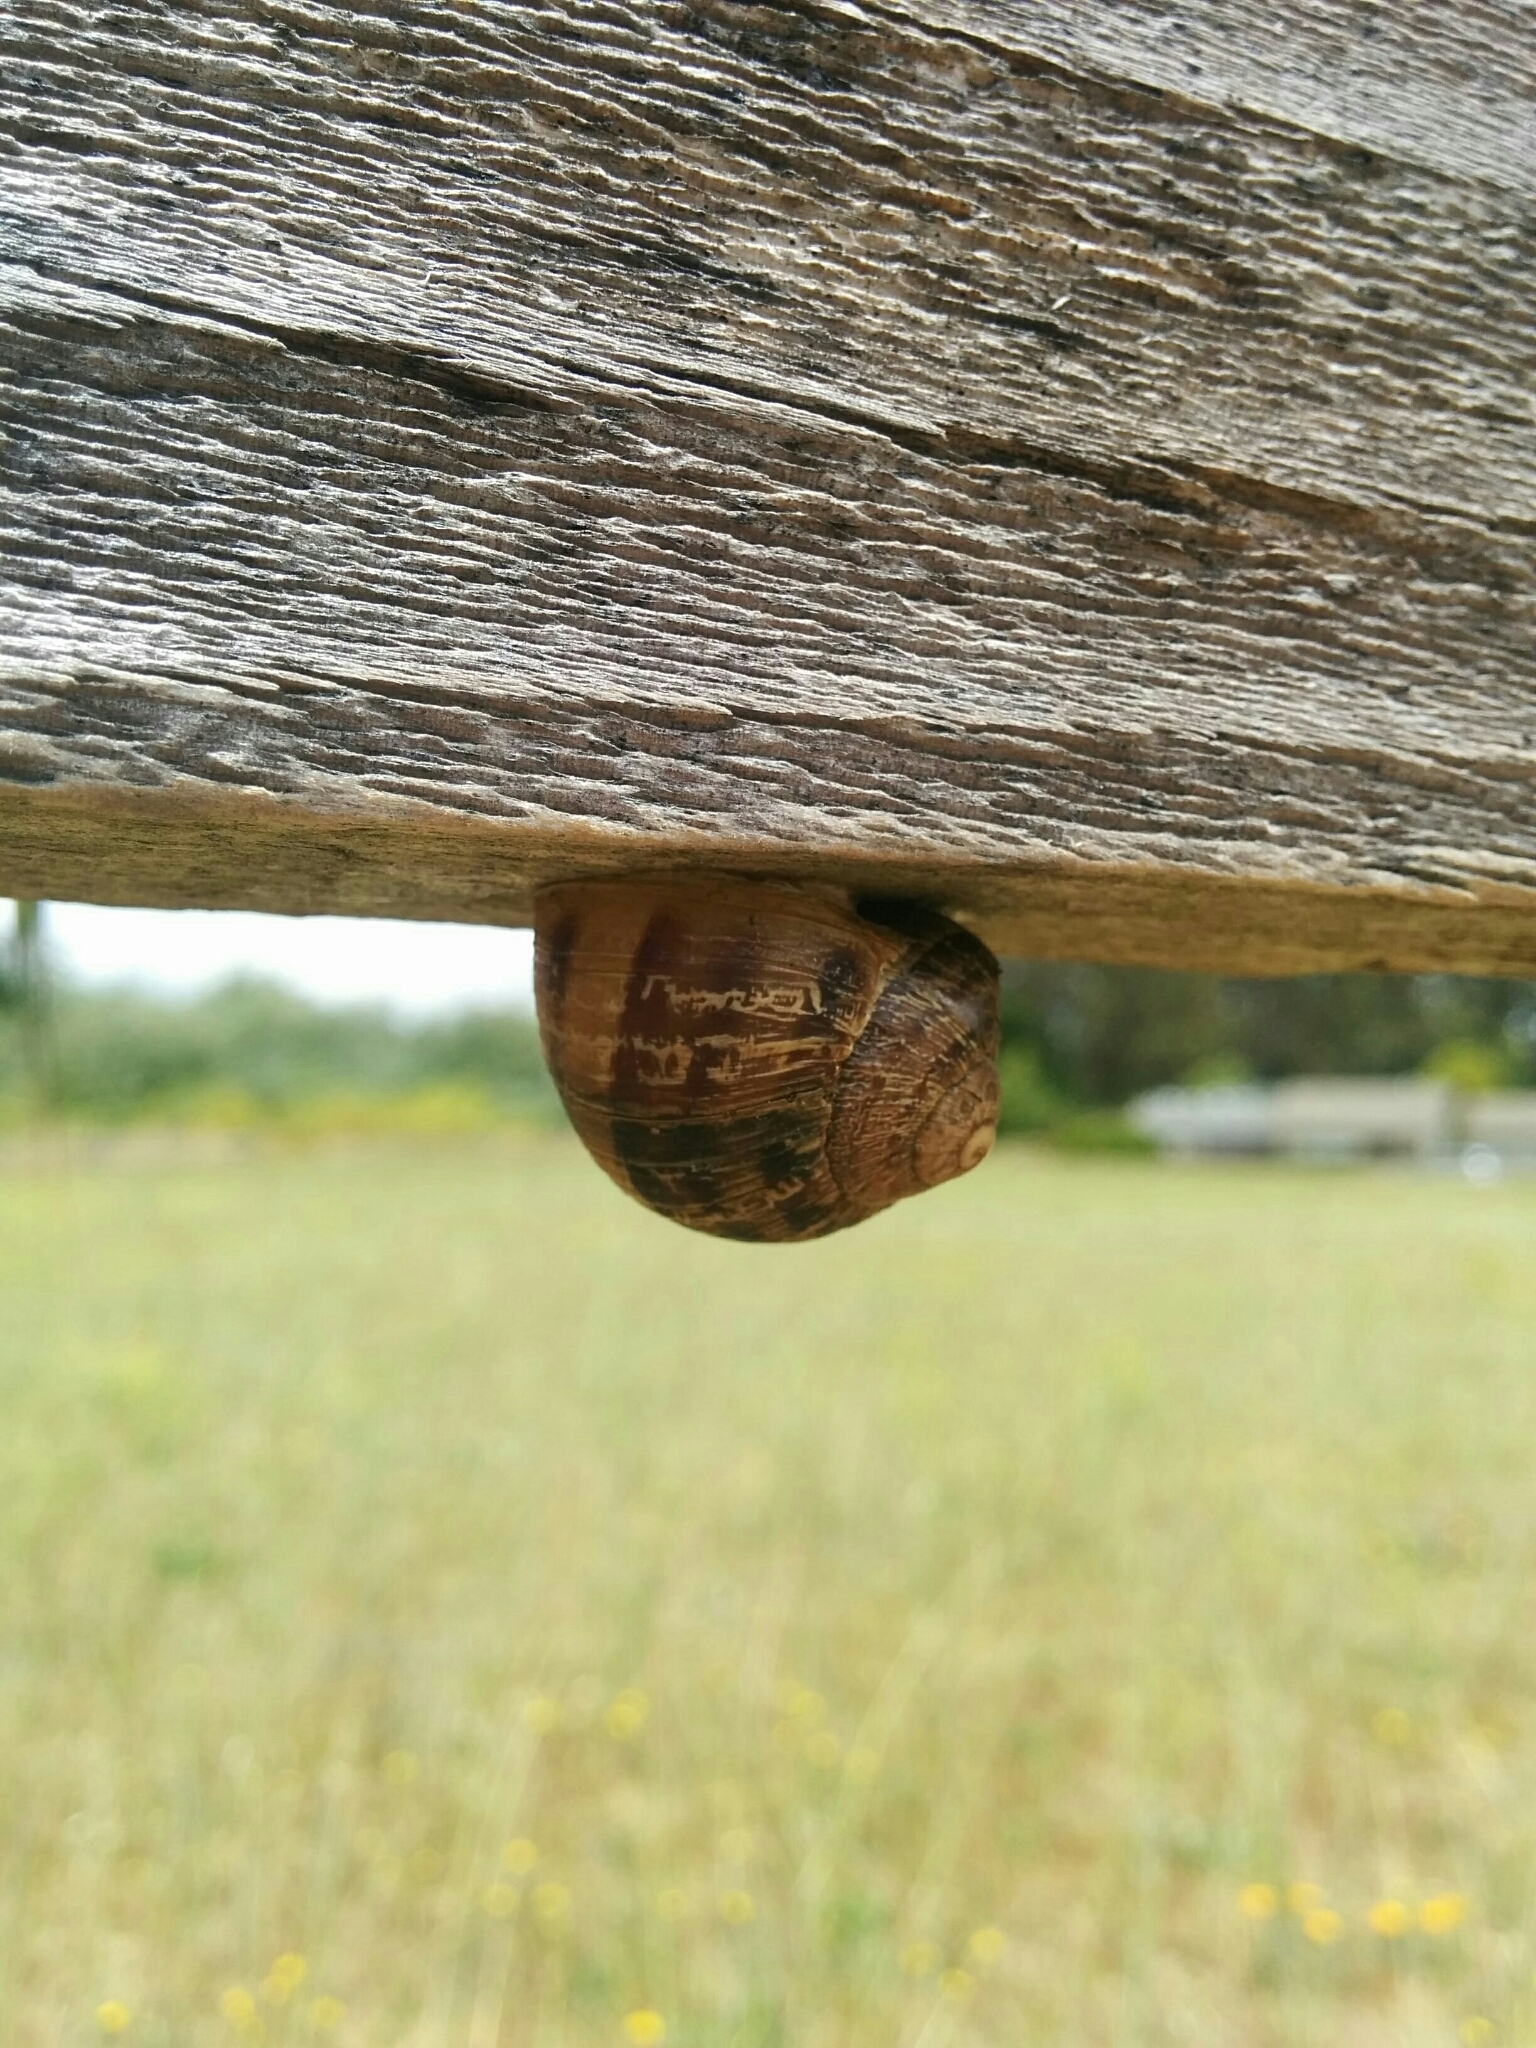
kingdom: Animalia
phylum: Mollusca
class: Gastropoda
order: Stylommatophora
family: Helicidae
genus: Cornu
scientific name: Cornu aspersum
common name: Brown garden snail
